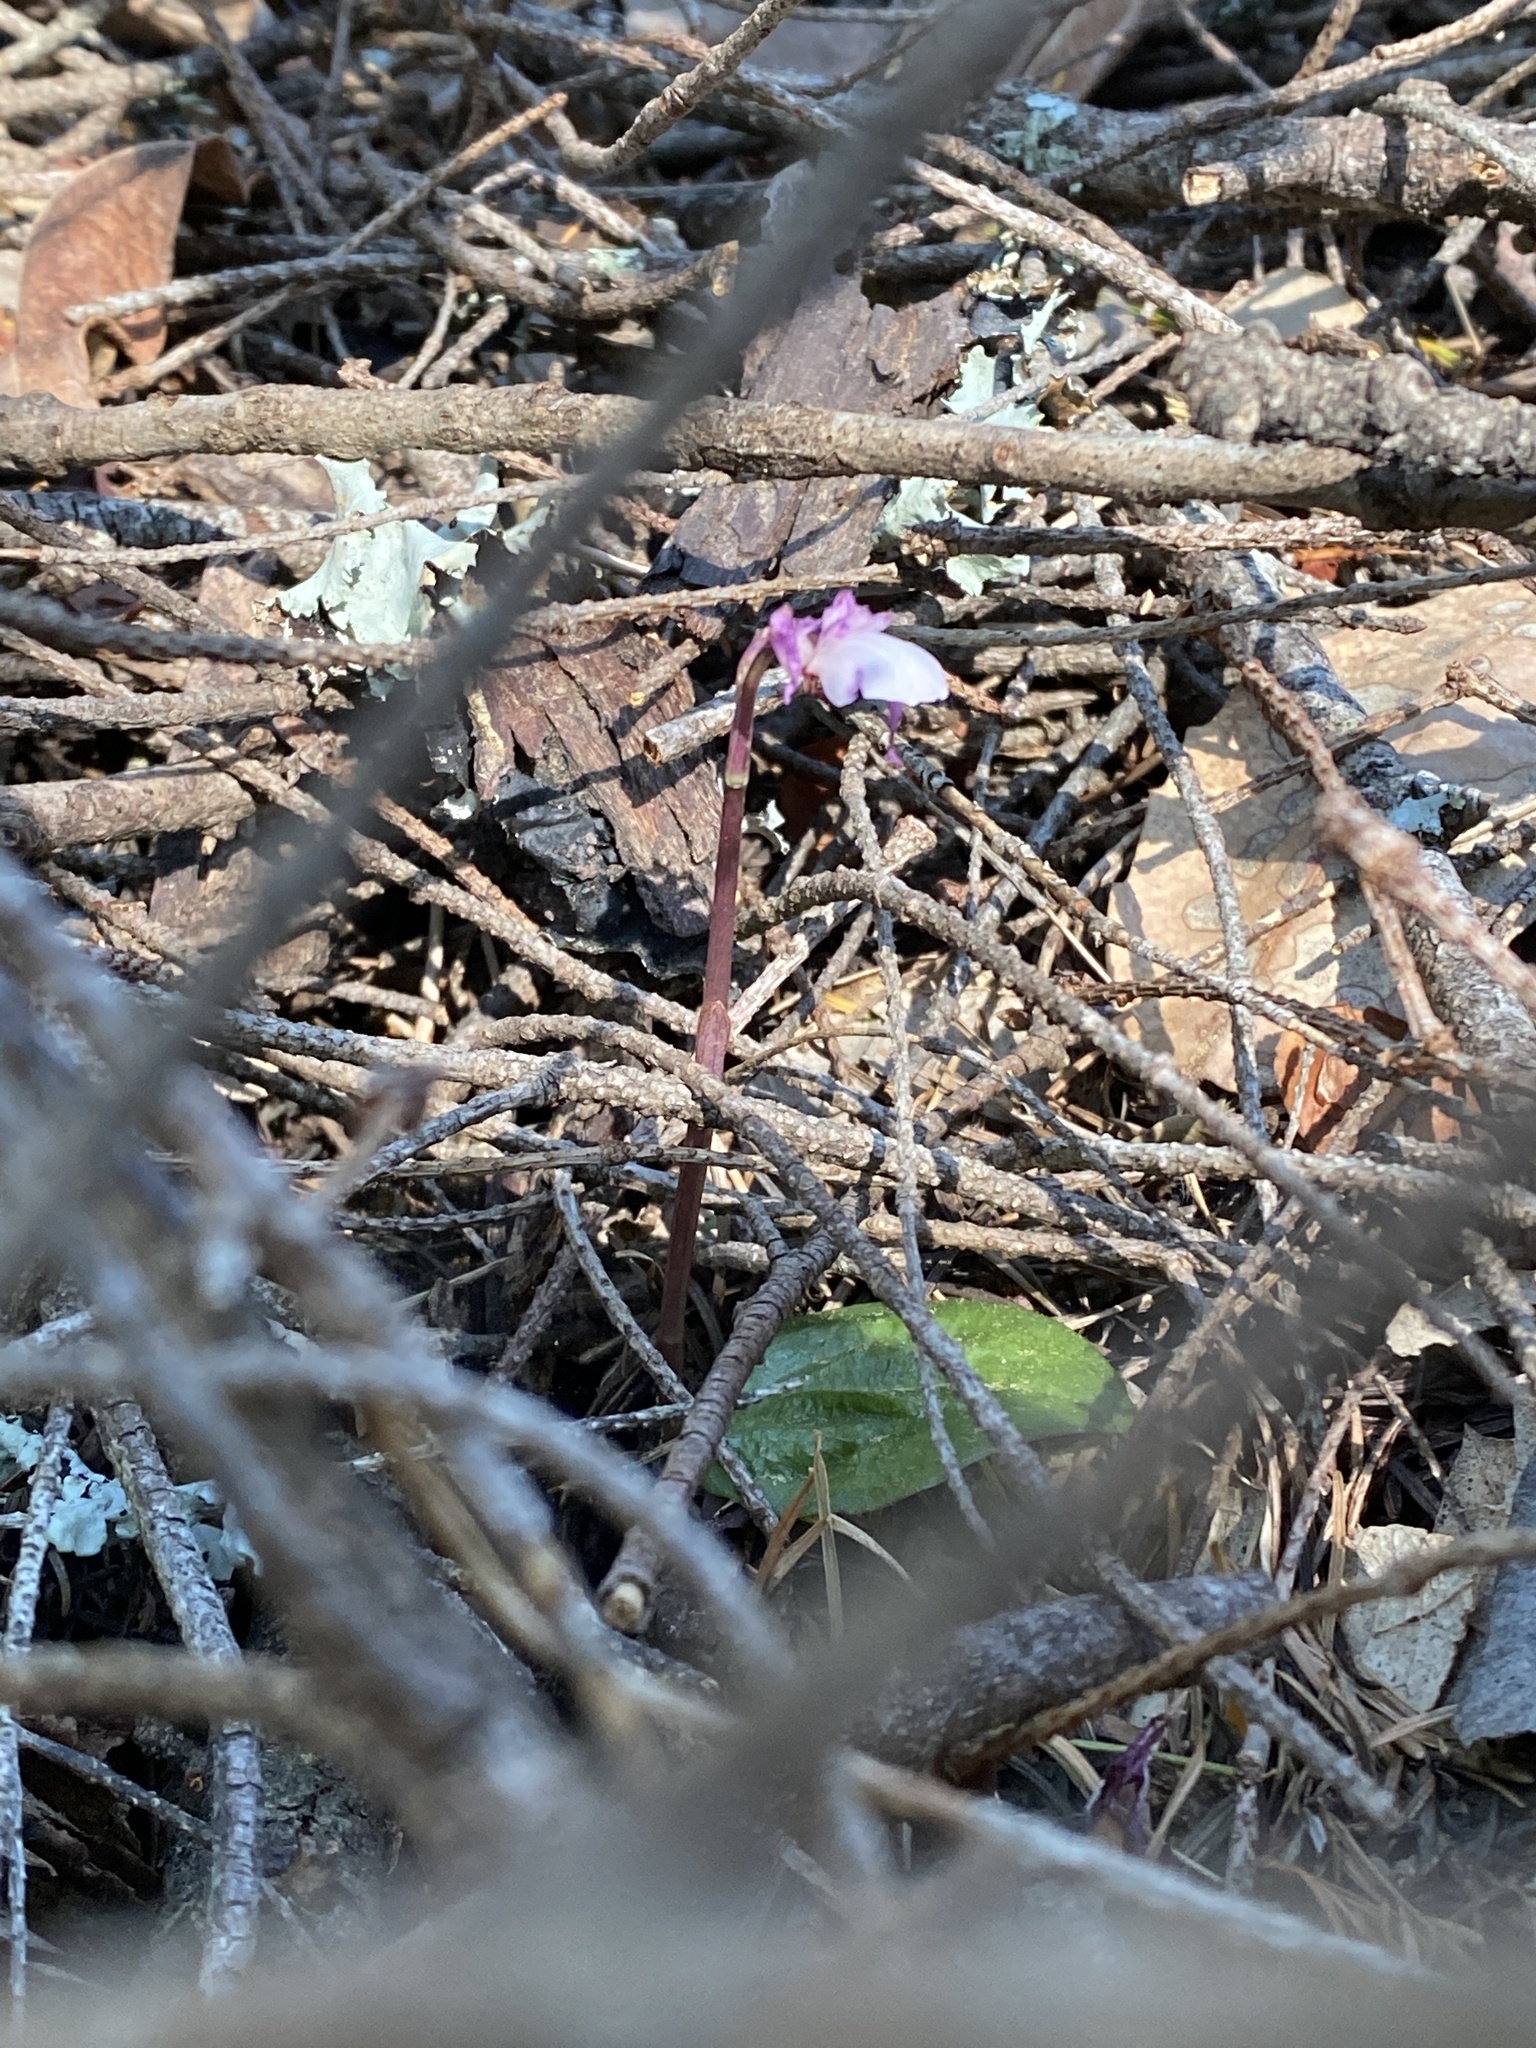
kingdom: Plantae
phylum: Tracheophyta
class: Liliopsida
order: Asparagales
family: Orchidaceae
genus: Calypso
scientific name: Calypso bulbosa
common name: Calypso
